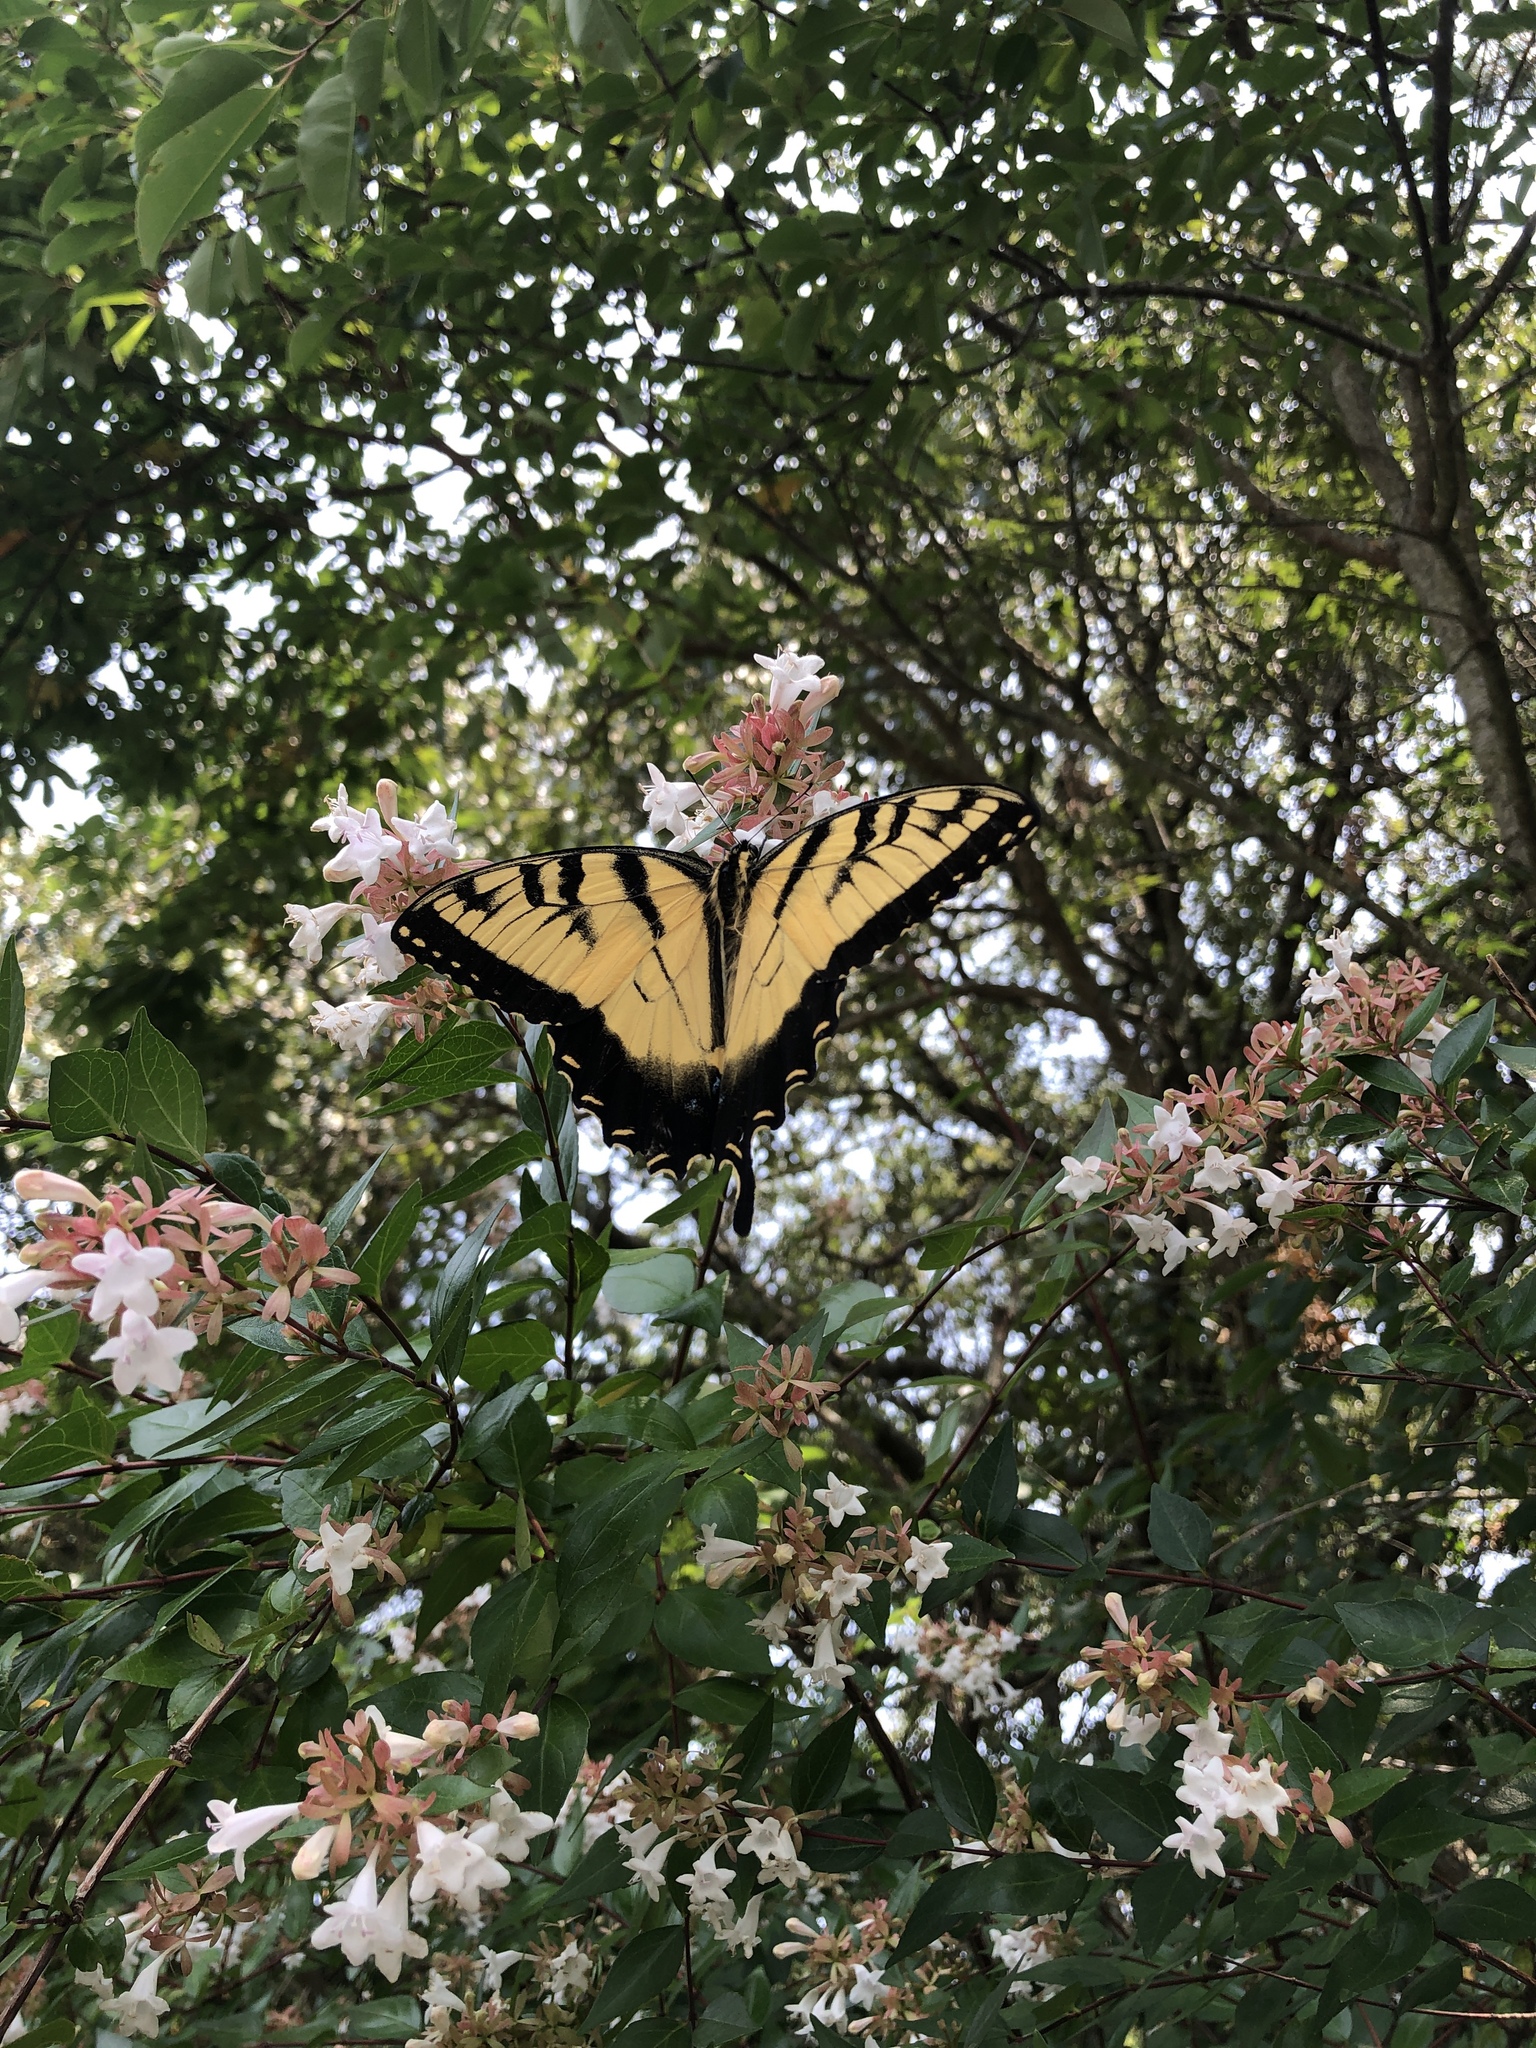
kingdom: Animalia
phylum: Arthropoda
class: Insecta
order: Lepidoptera
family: Papilionidae
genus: Papilio
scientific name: Papilio glaucus
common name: Tiger swallowtail
